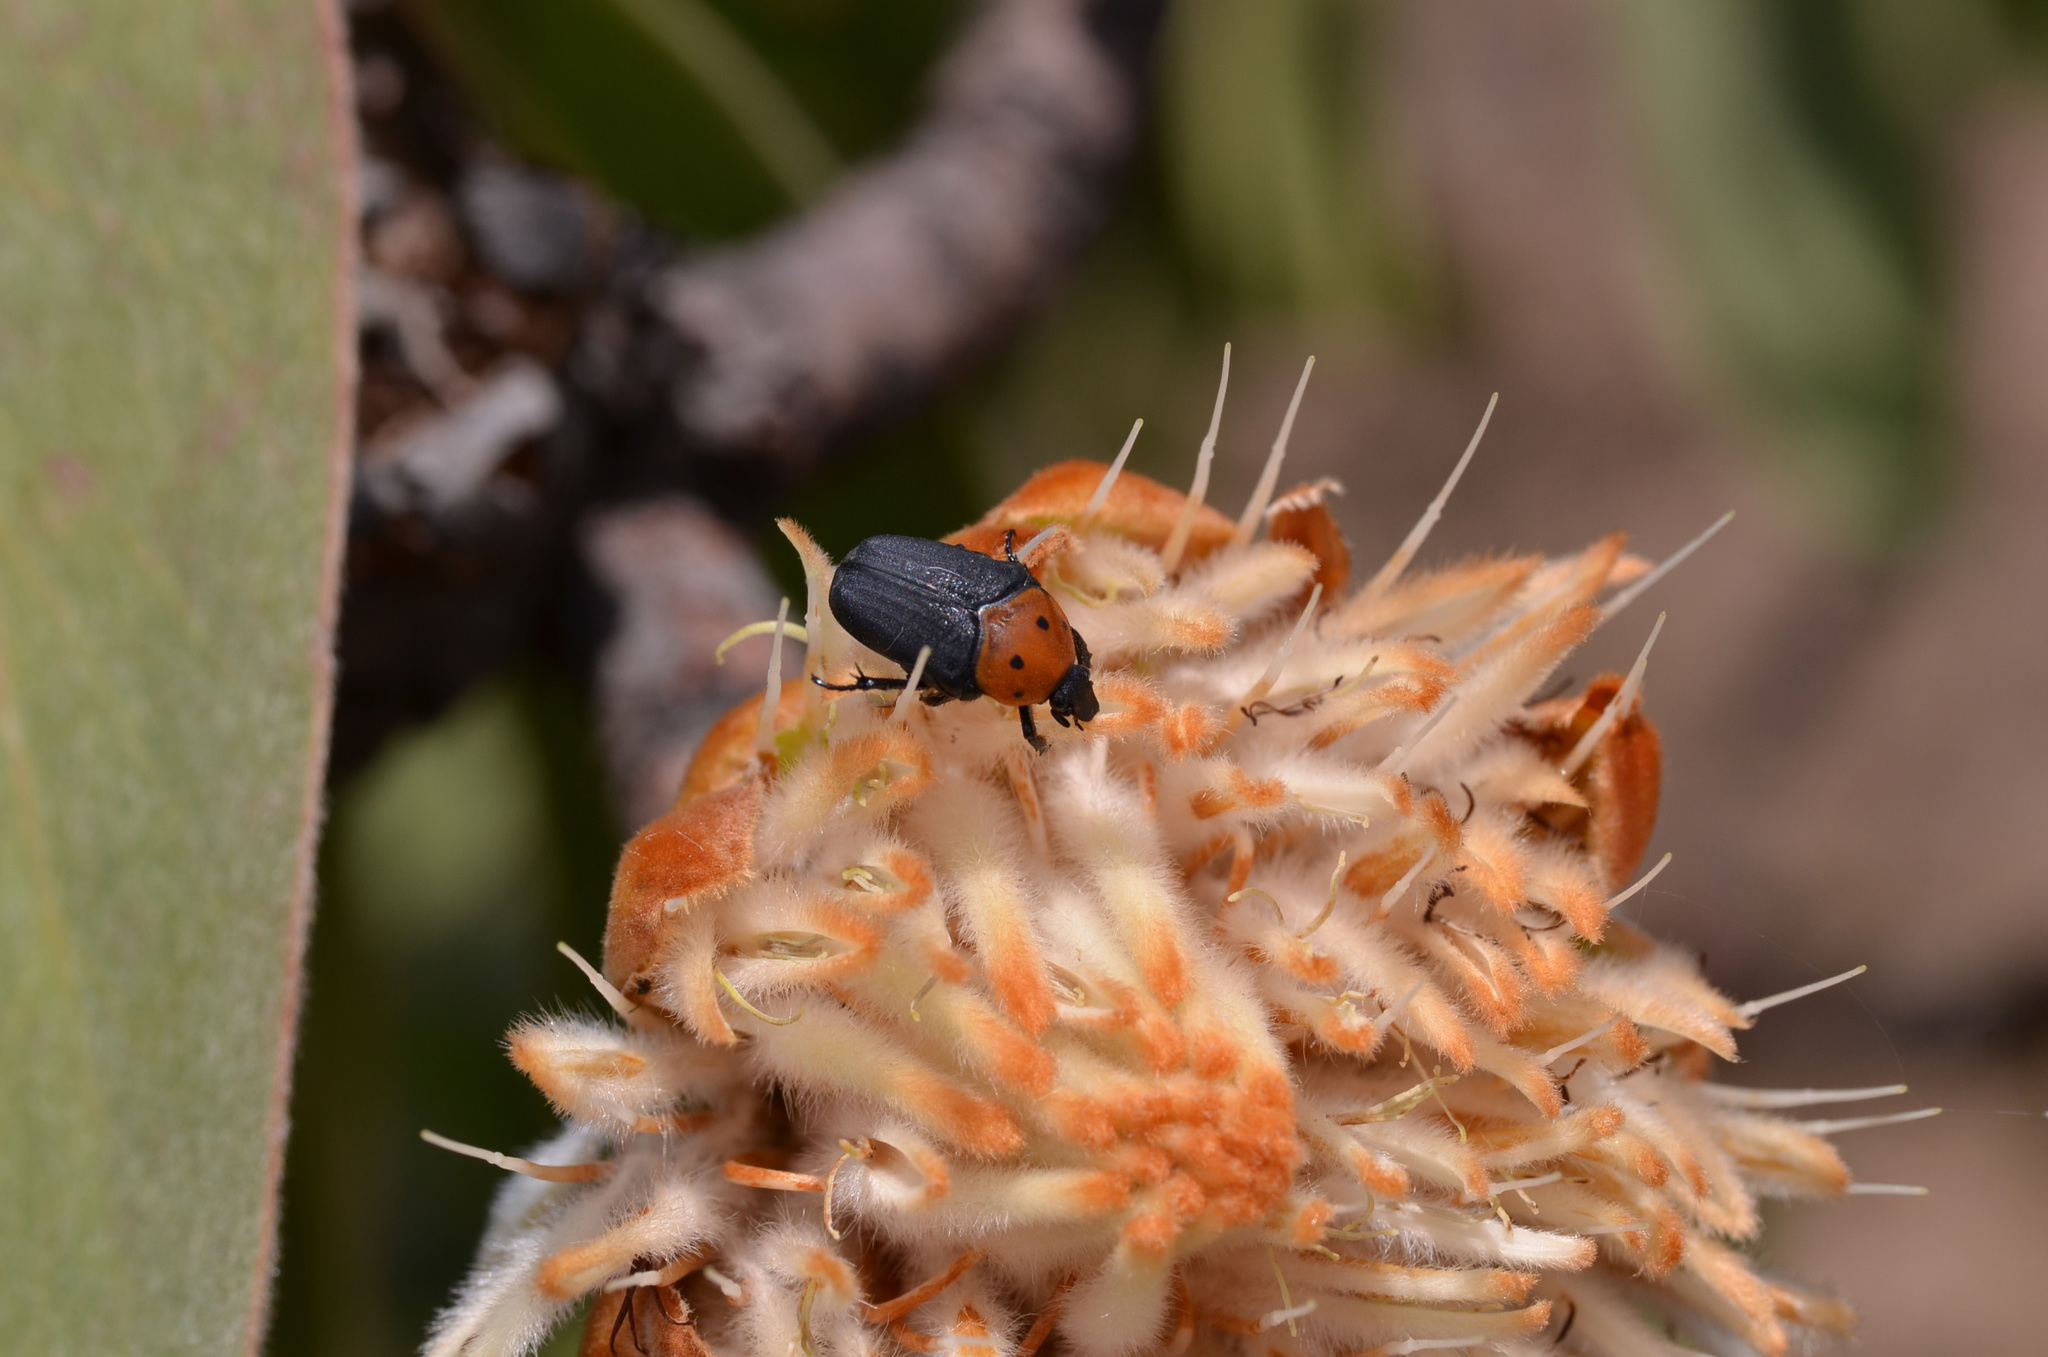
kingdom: Animalia
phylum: Arthropoda
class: Insecta
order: Coleoptera
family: Scarabaeidae
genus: Pseudoclinteria
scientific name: Pseudoclinteria infuscata
